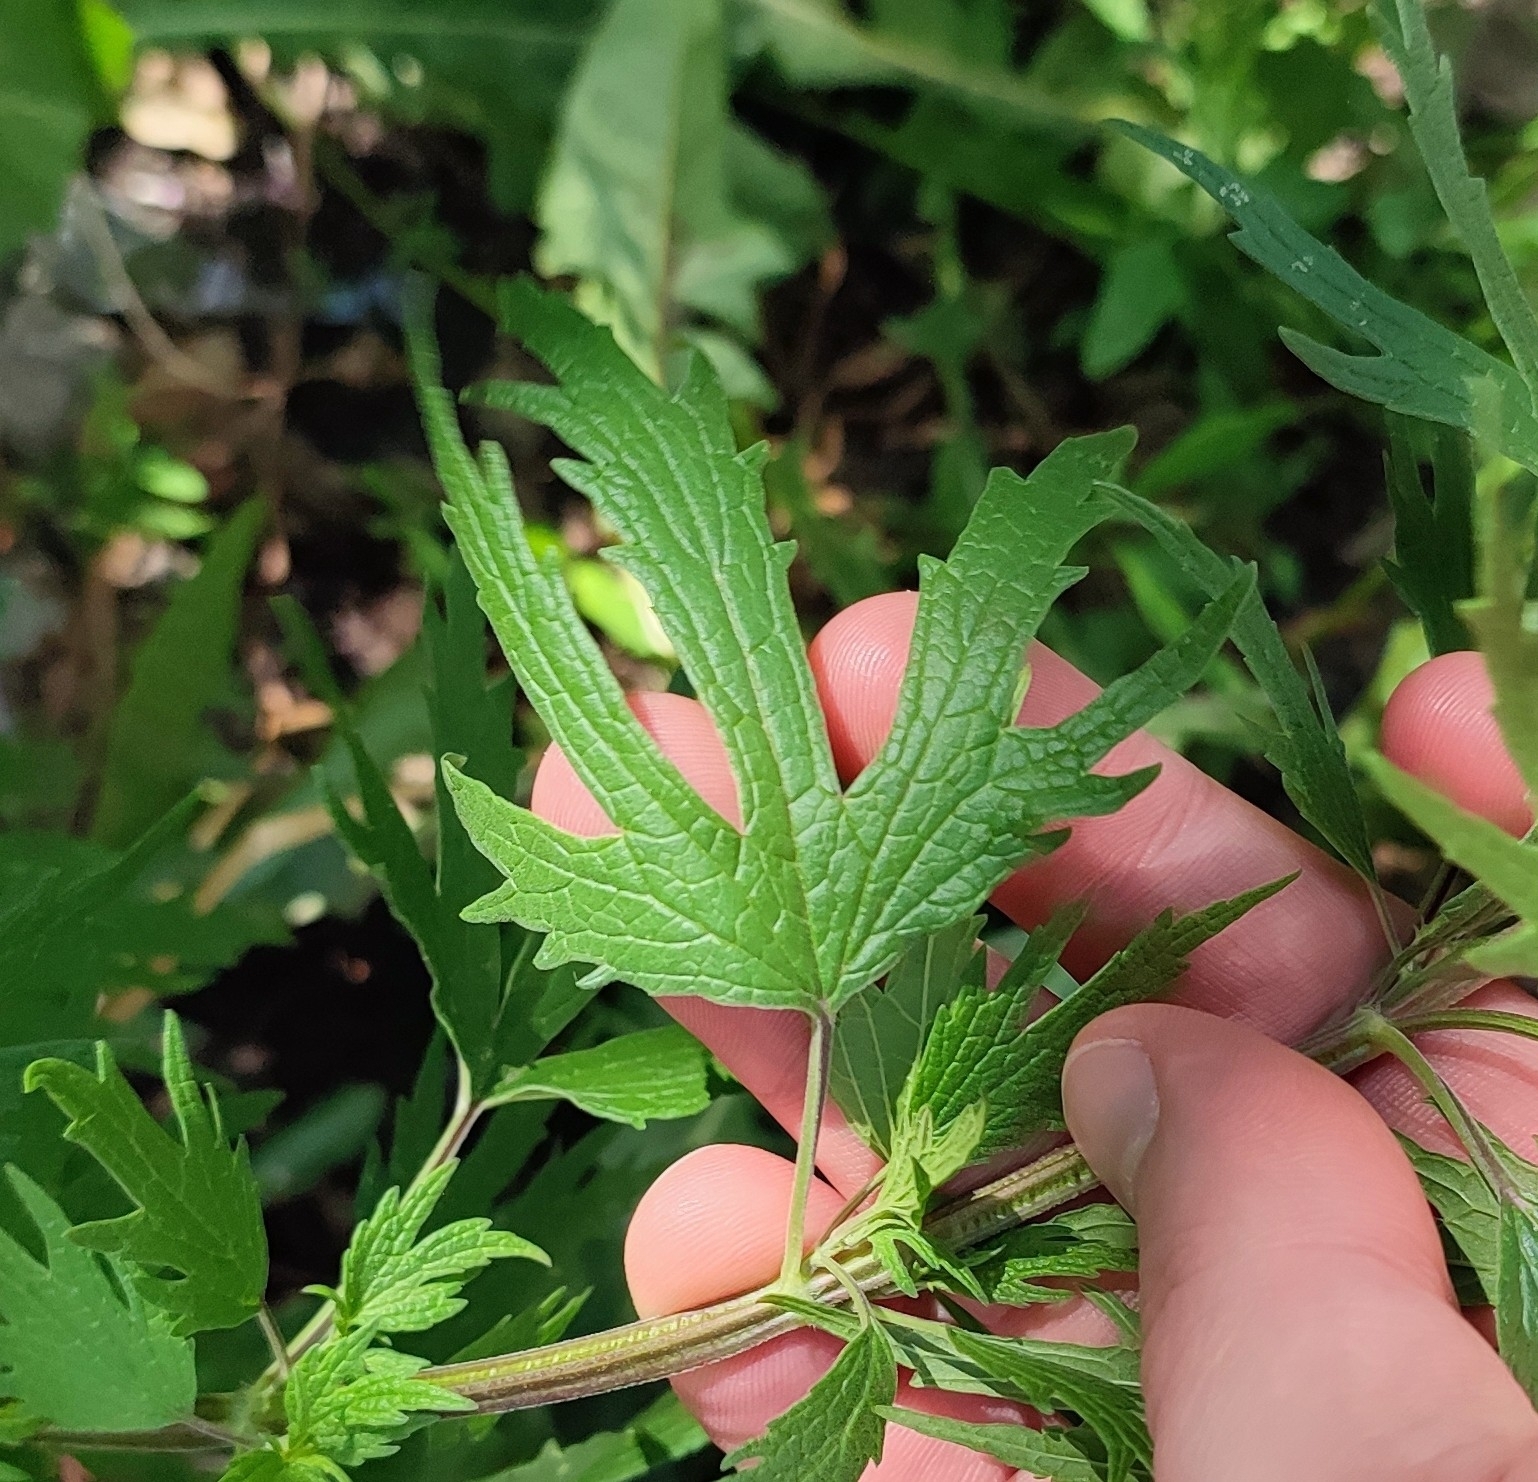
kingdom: Plantae
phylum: Tracheophyta
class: Magnoliopsida
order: Lamiales
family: Lamiaceae
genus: Leonurus
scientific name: Leonurus quinquelobatus
